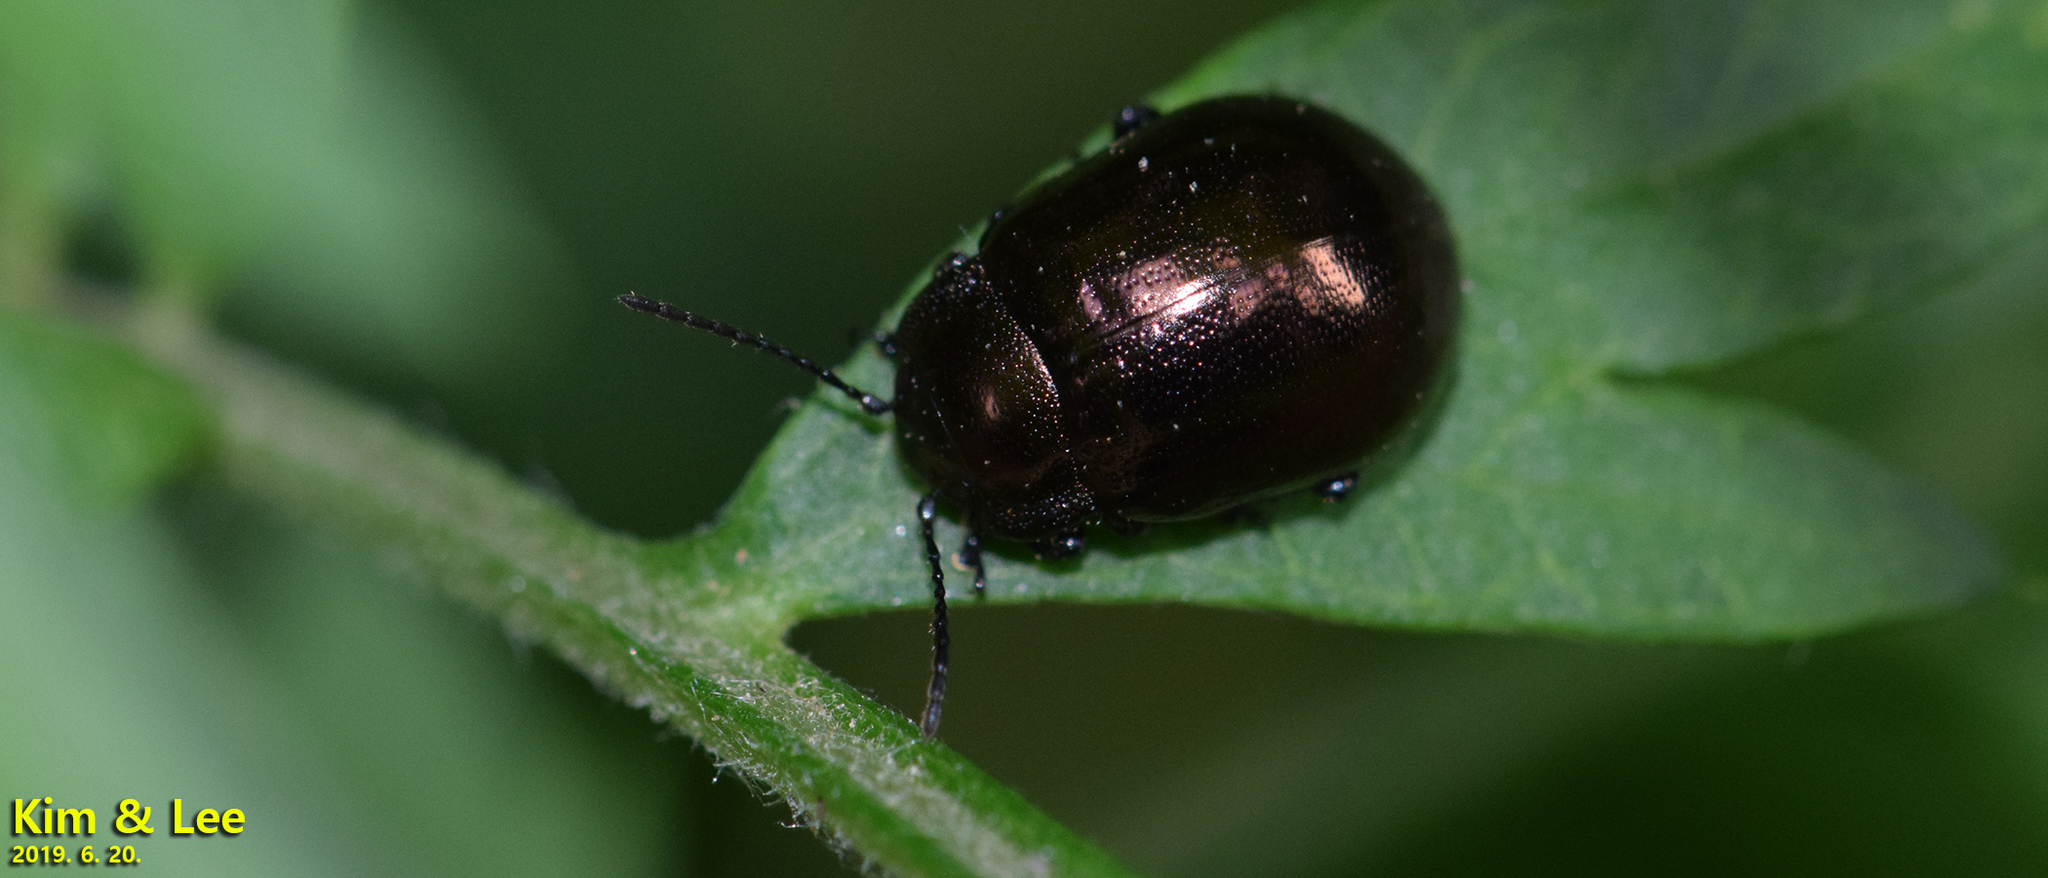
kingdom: Animalia
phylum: Arthropoda
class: Insecta
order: Coleoptera
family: Chrysomelidae
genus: Chrysolina
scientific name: Chrysolina aurichalcea
